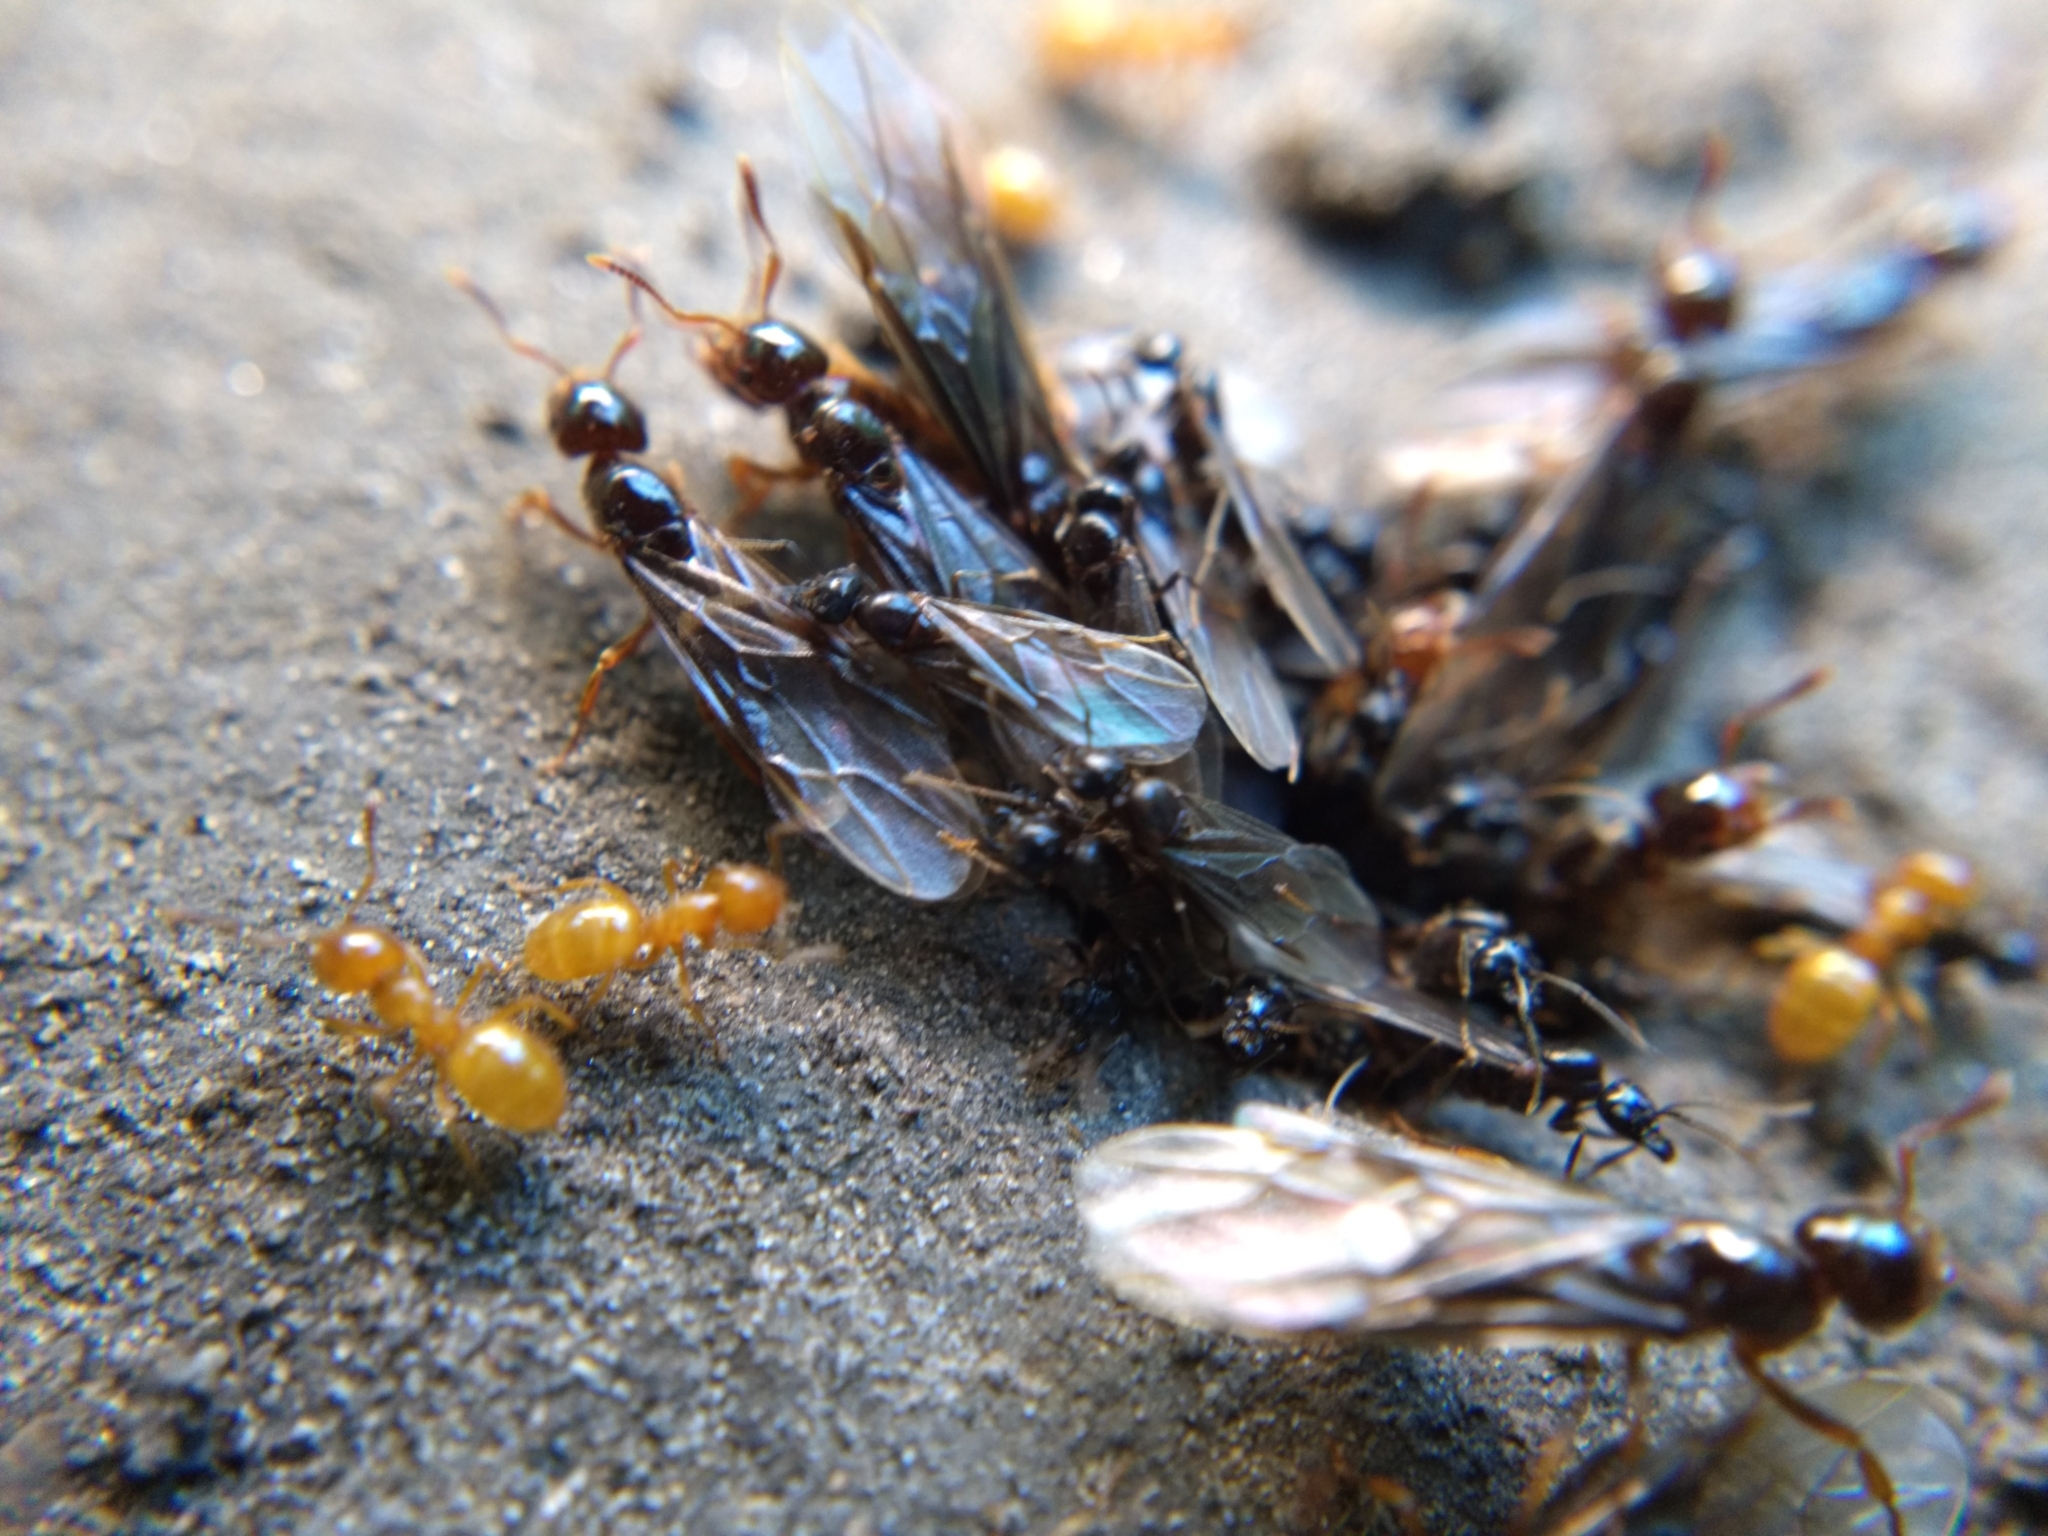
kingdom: Animalia
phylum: Arthropoda
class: Insecta
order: Hymenoptera
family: Formicidae
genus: Lasius
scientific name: Lasius claviger
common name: Common citronella ant
